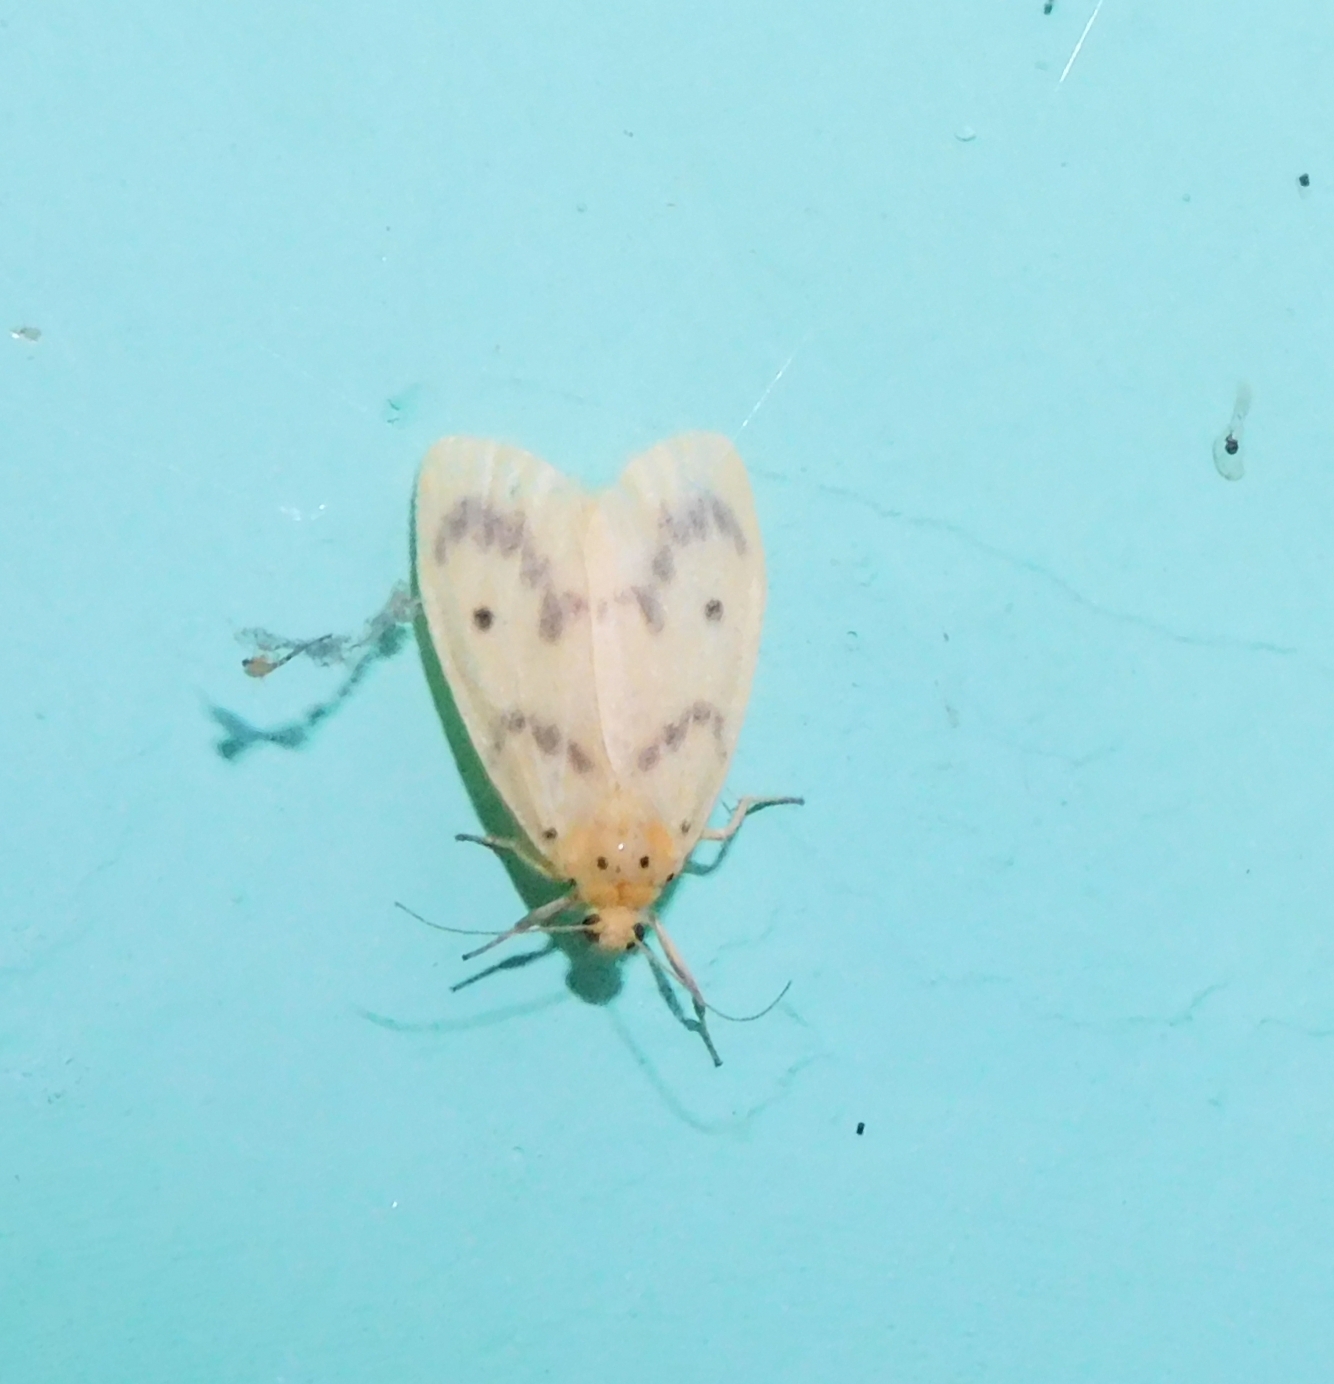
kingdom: Animalia
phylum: Arthropoda
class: Insecta
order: Lepidoptera
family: Erebidae
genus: Miltochrista
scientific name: Miltochrista undulata
